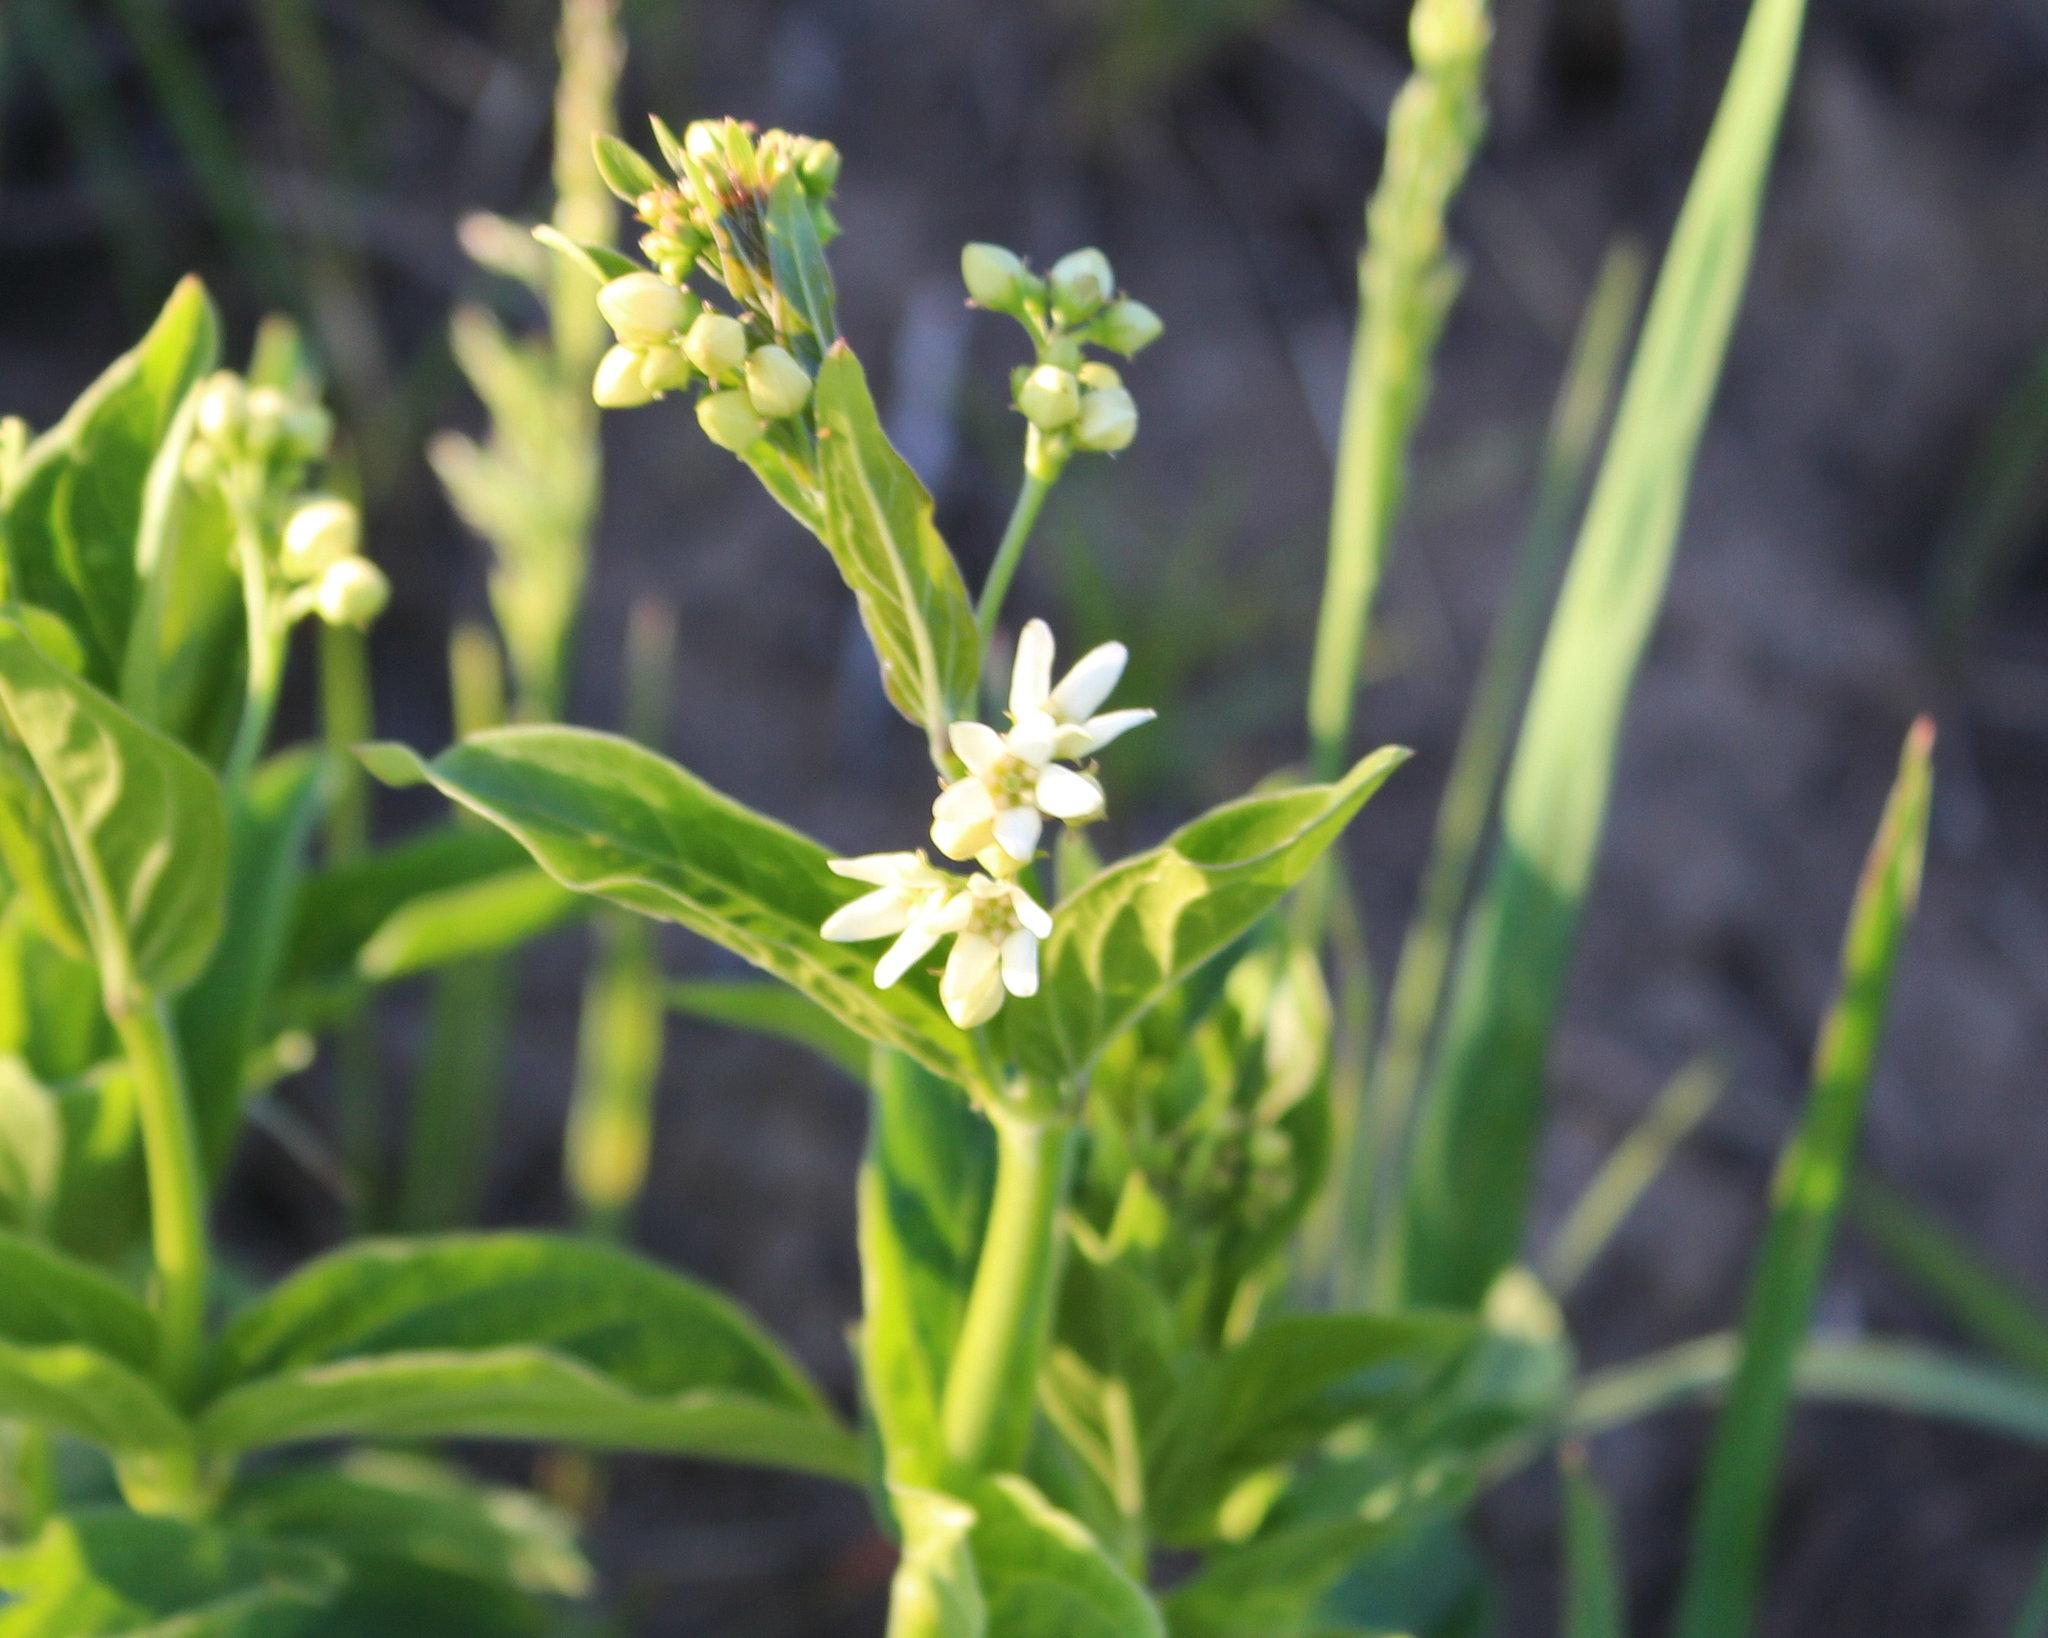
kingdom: Plantae
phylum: Tracheophyta
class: Magnoliopsida
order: Gentianales
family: Apocynaceae
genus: Vincetoxicum
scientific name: Vincetoxicum hirundinaria
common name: White swallowwort
